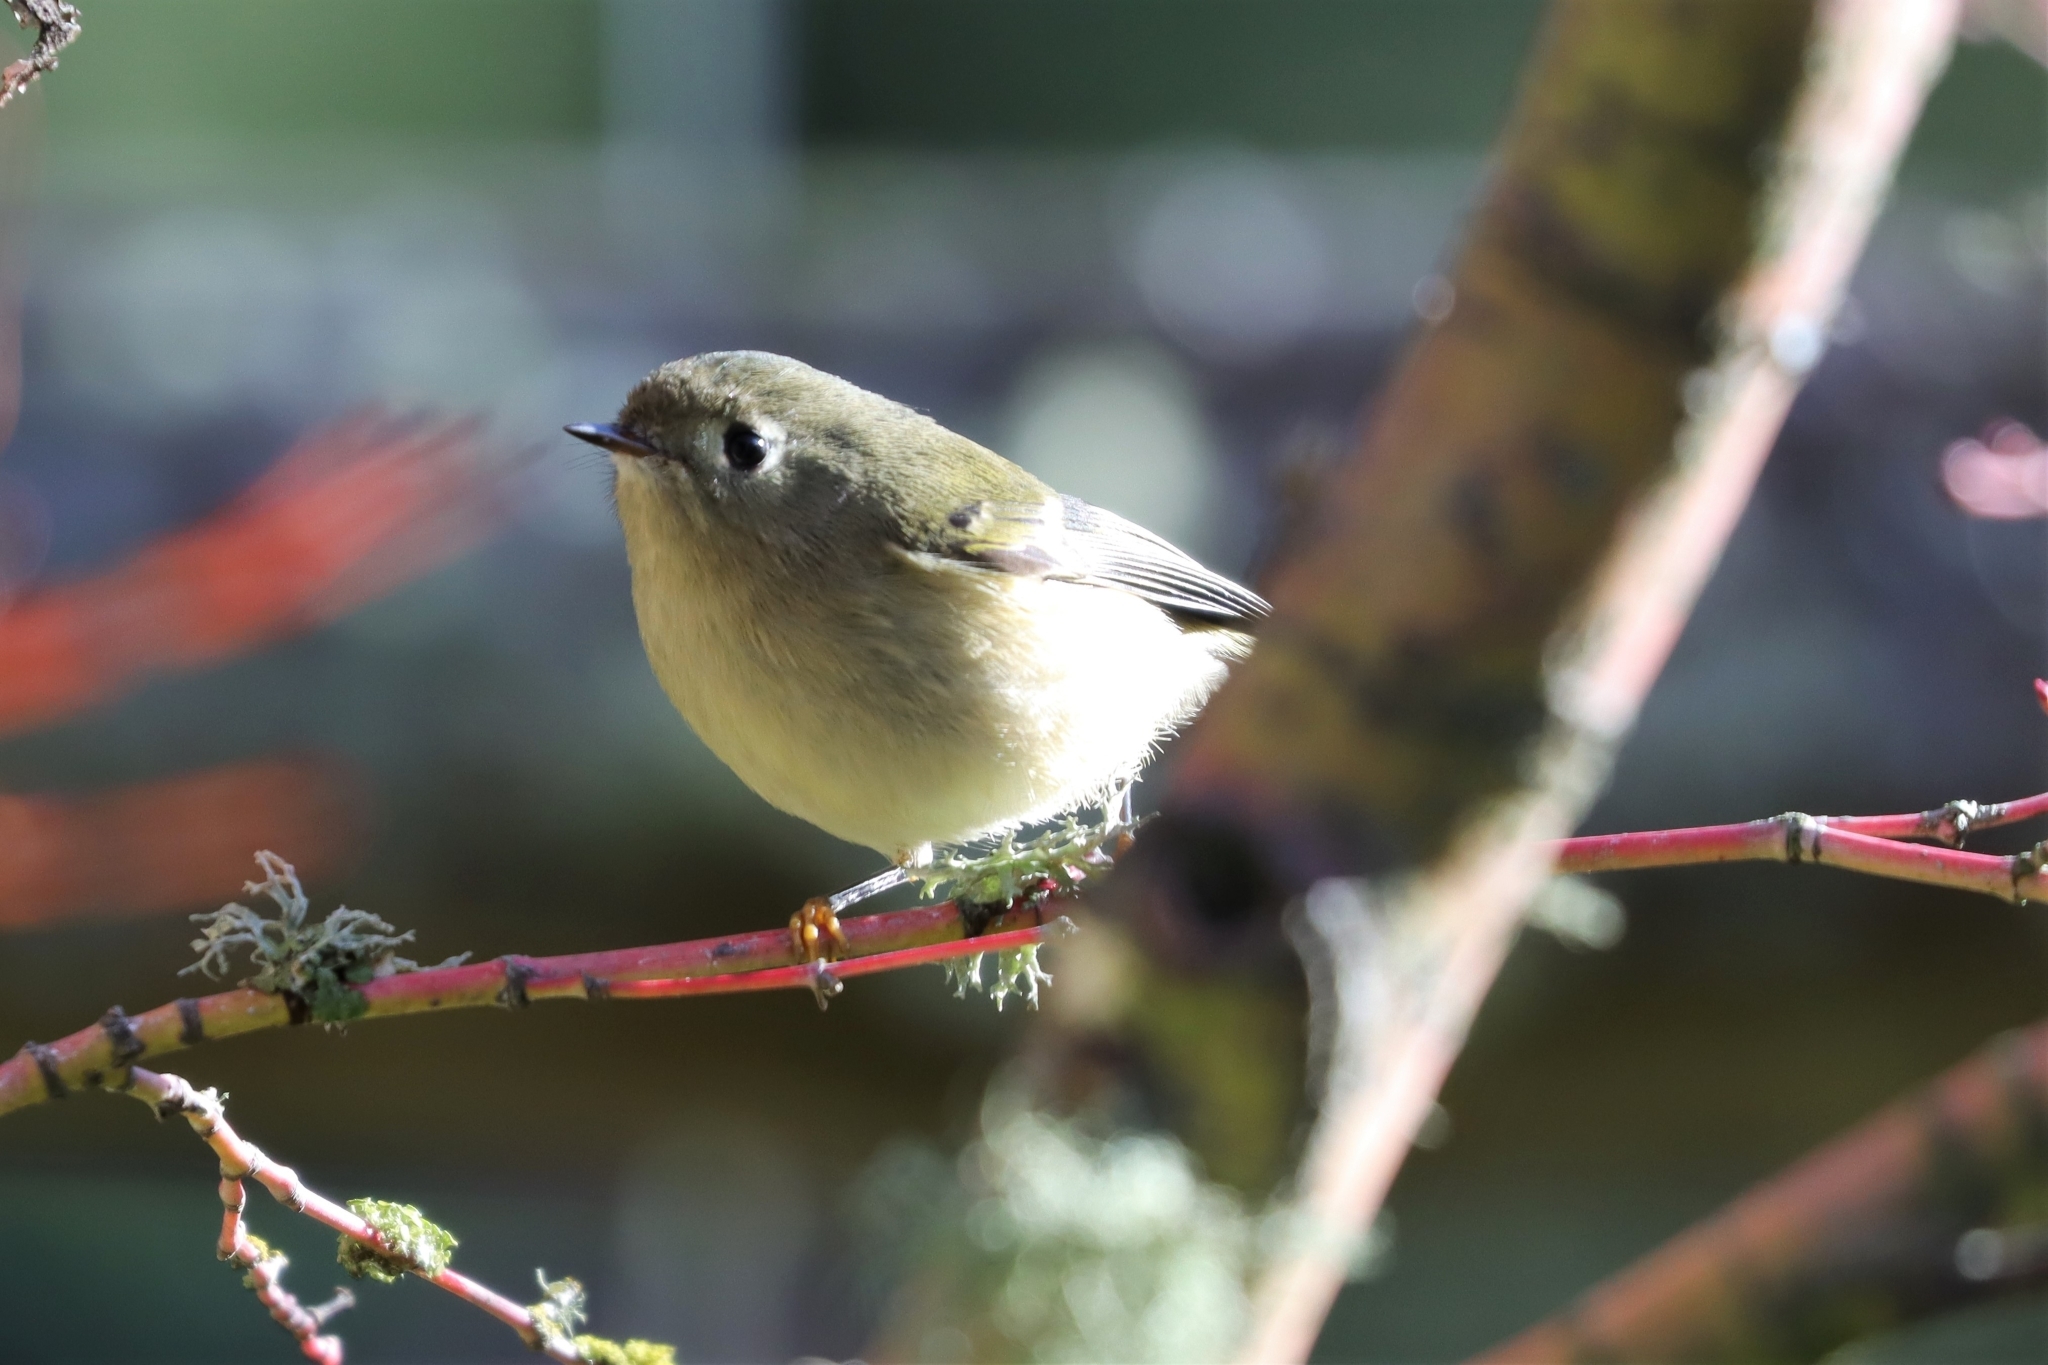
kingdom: Animalia
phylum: Chordata
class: Aves
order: Passeriformes
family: Regulidae
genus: Regulus
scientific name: Regulus calendula
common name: Ruby-crowned kinglet
